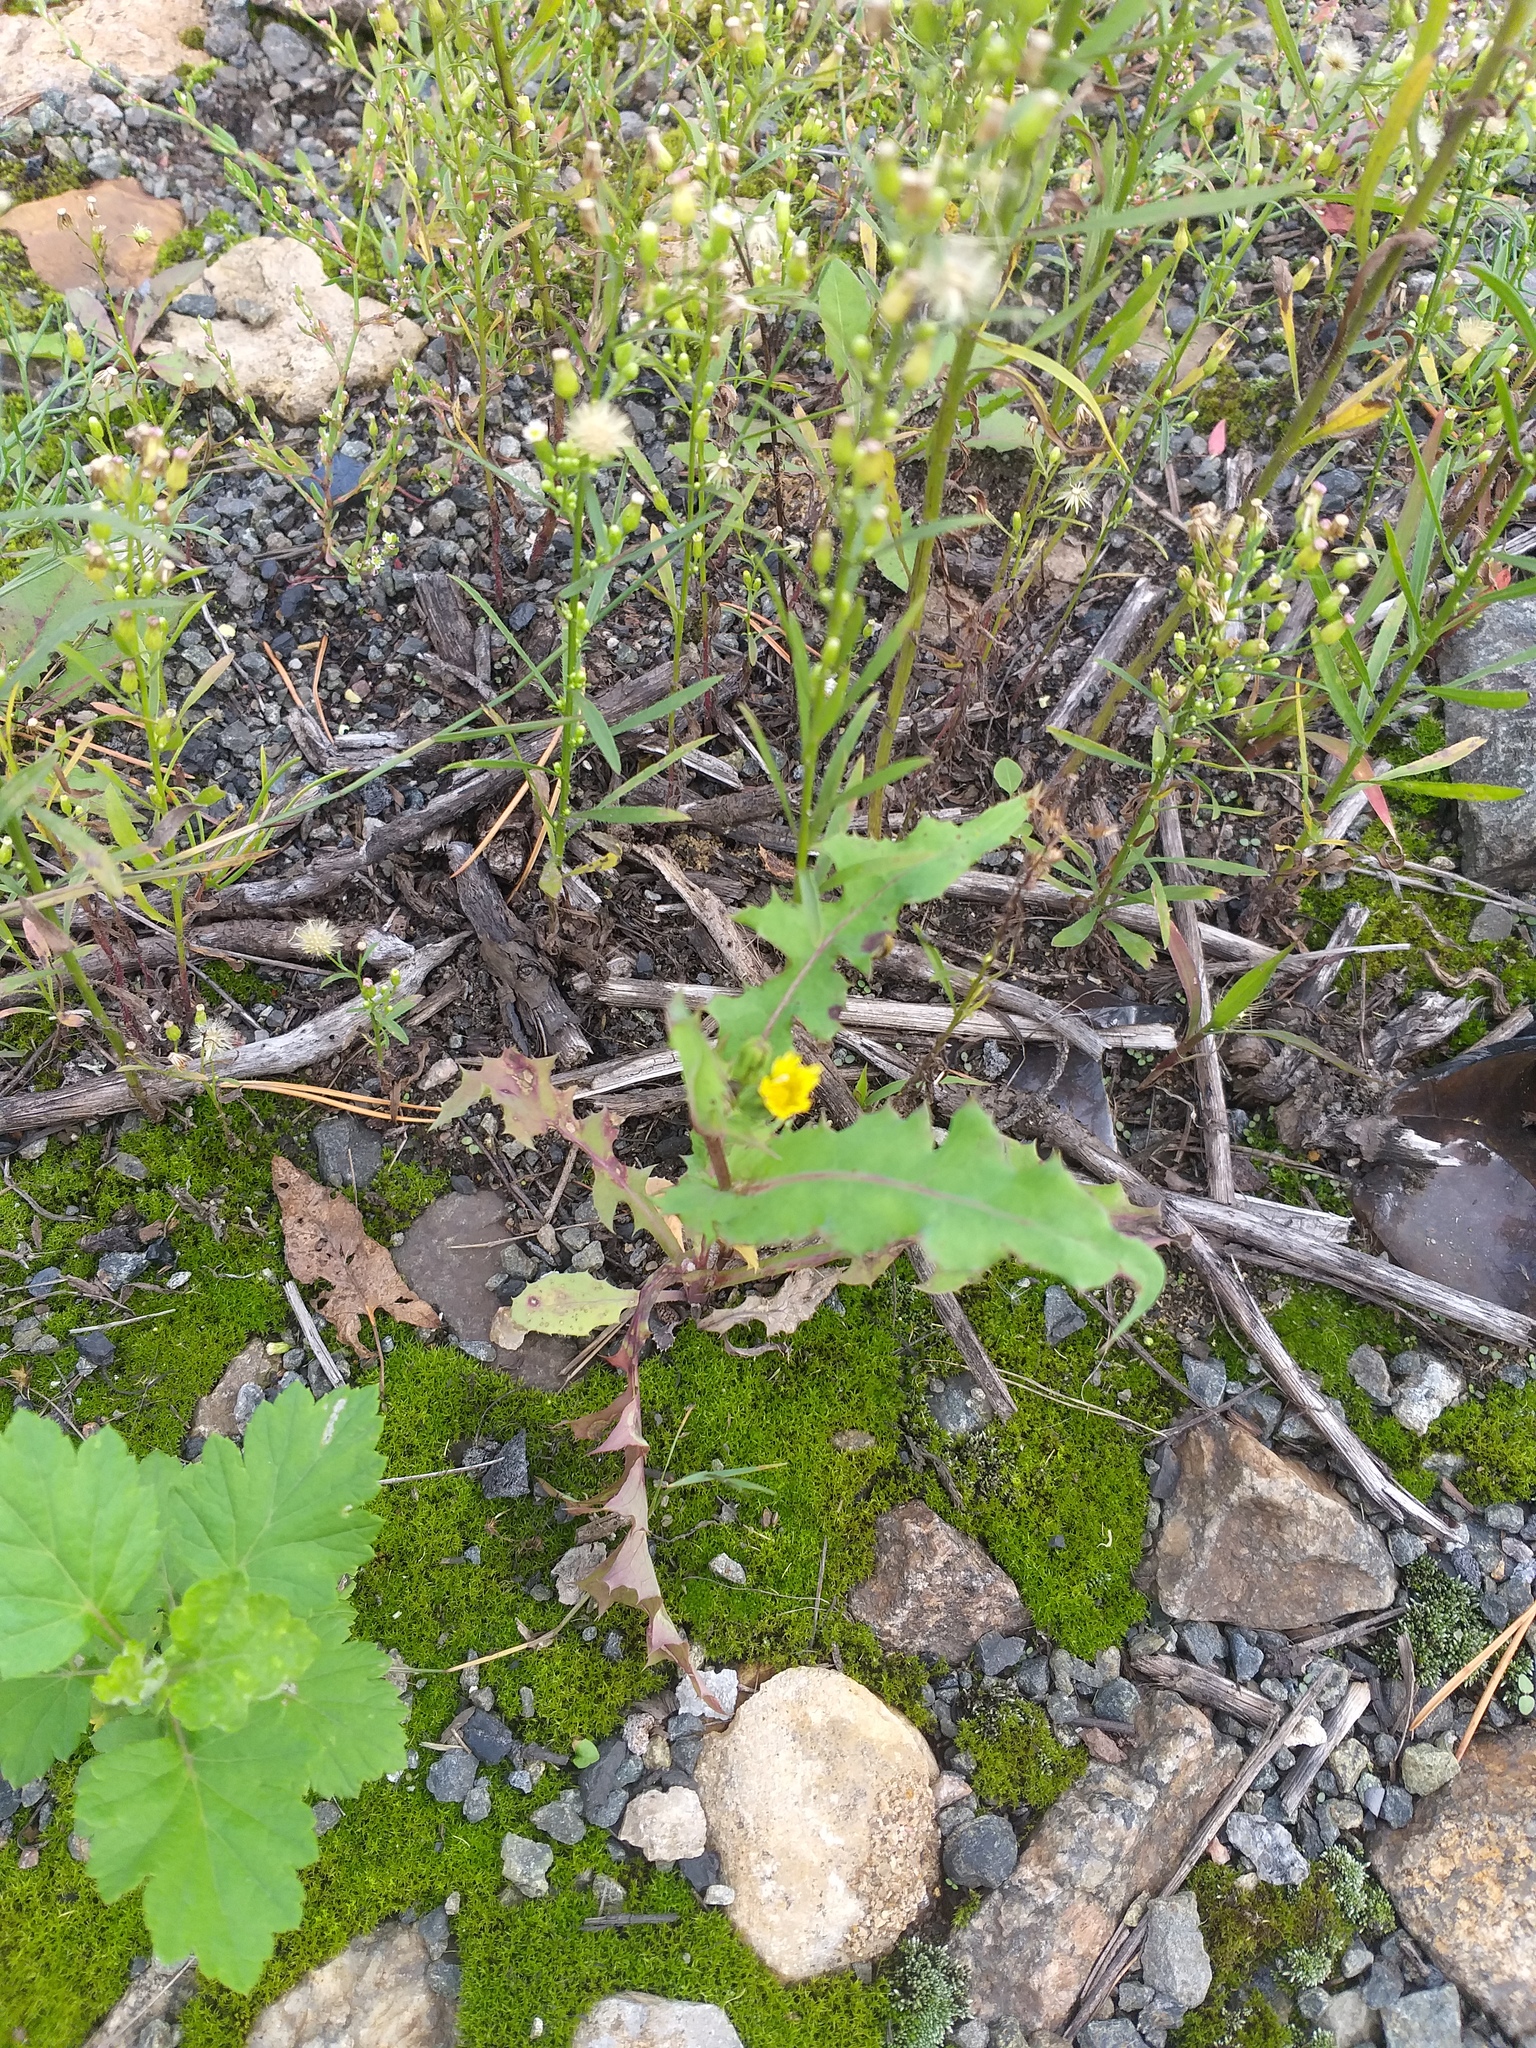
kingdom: Plantae
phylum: Tracheophyta
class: Magnoliopsida
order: Asterales
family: Asteraceae
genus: Sonchus
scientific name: Sonchus oleraceus
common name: Common sowthistle
